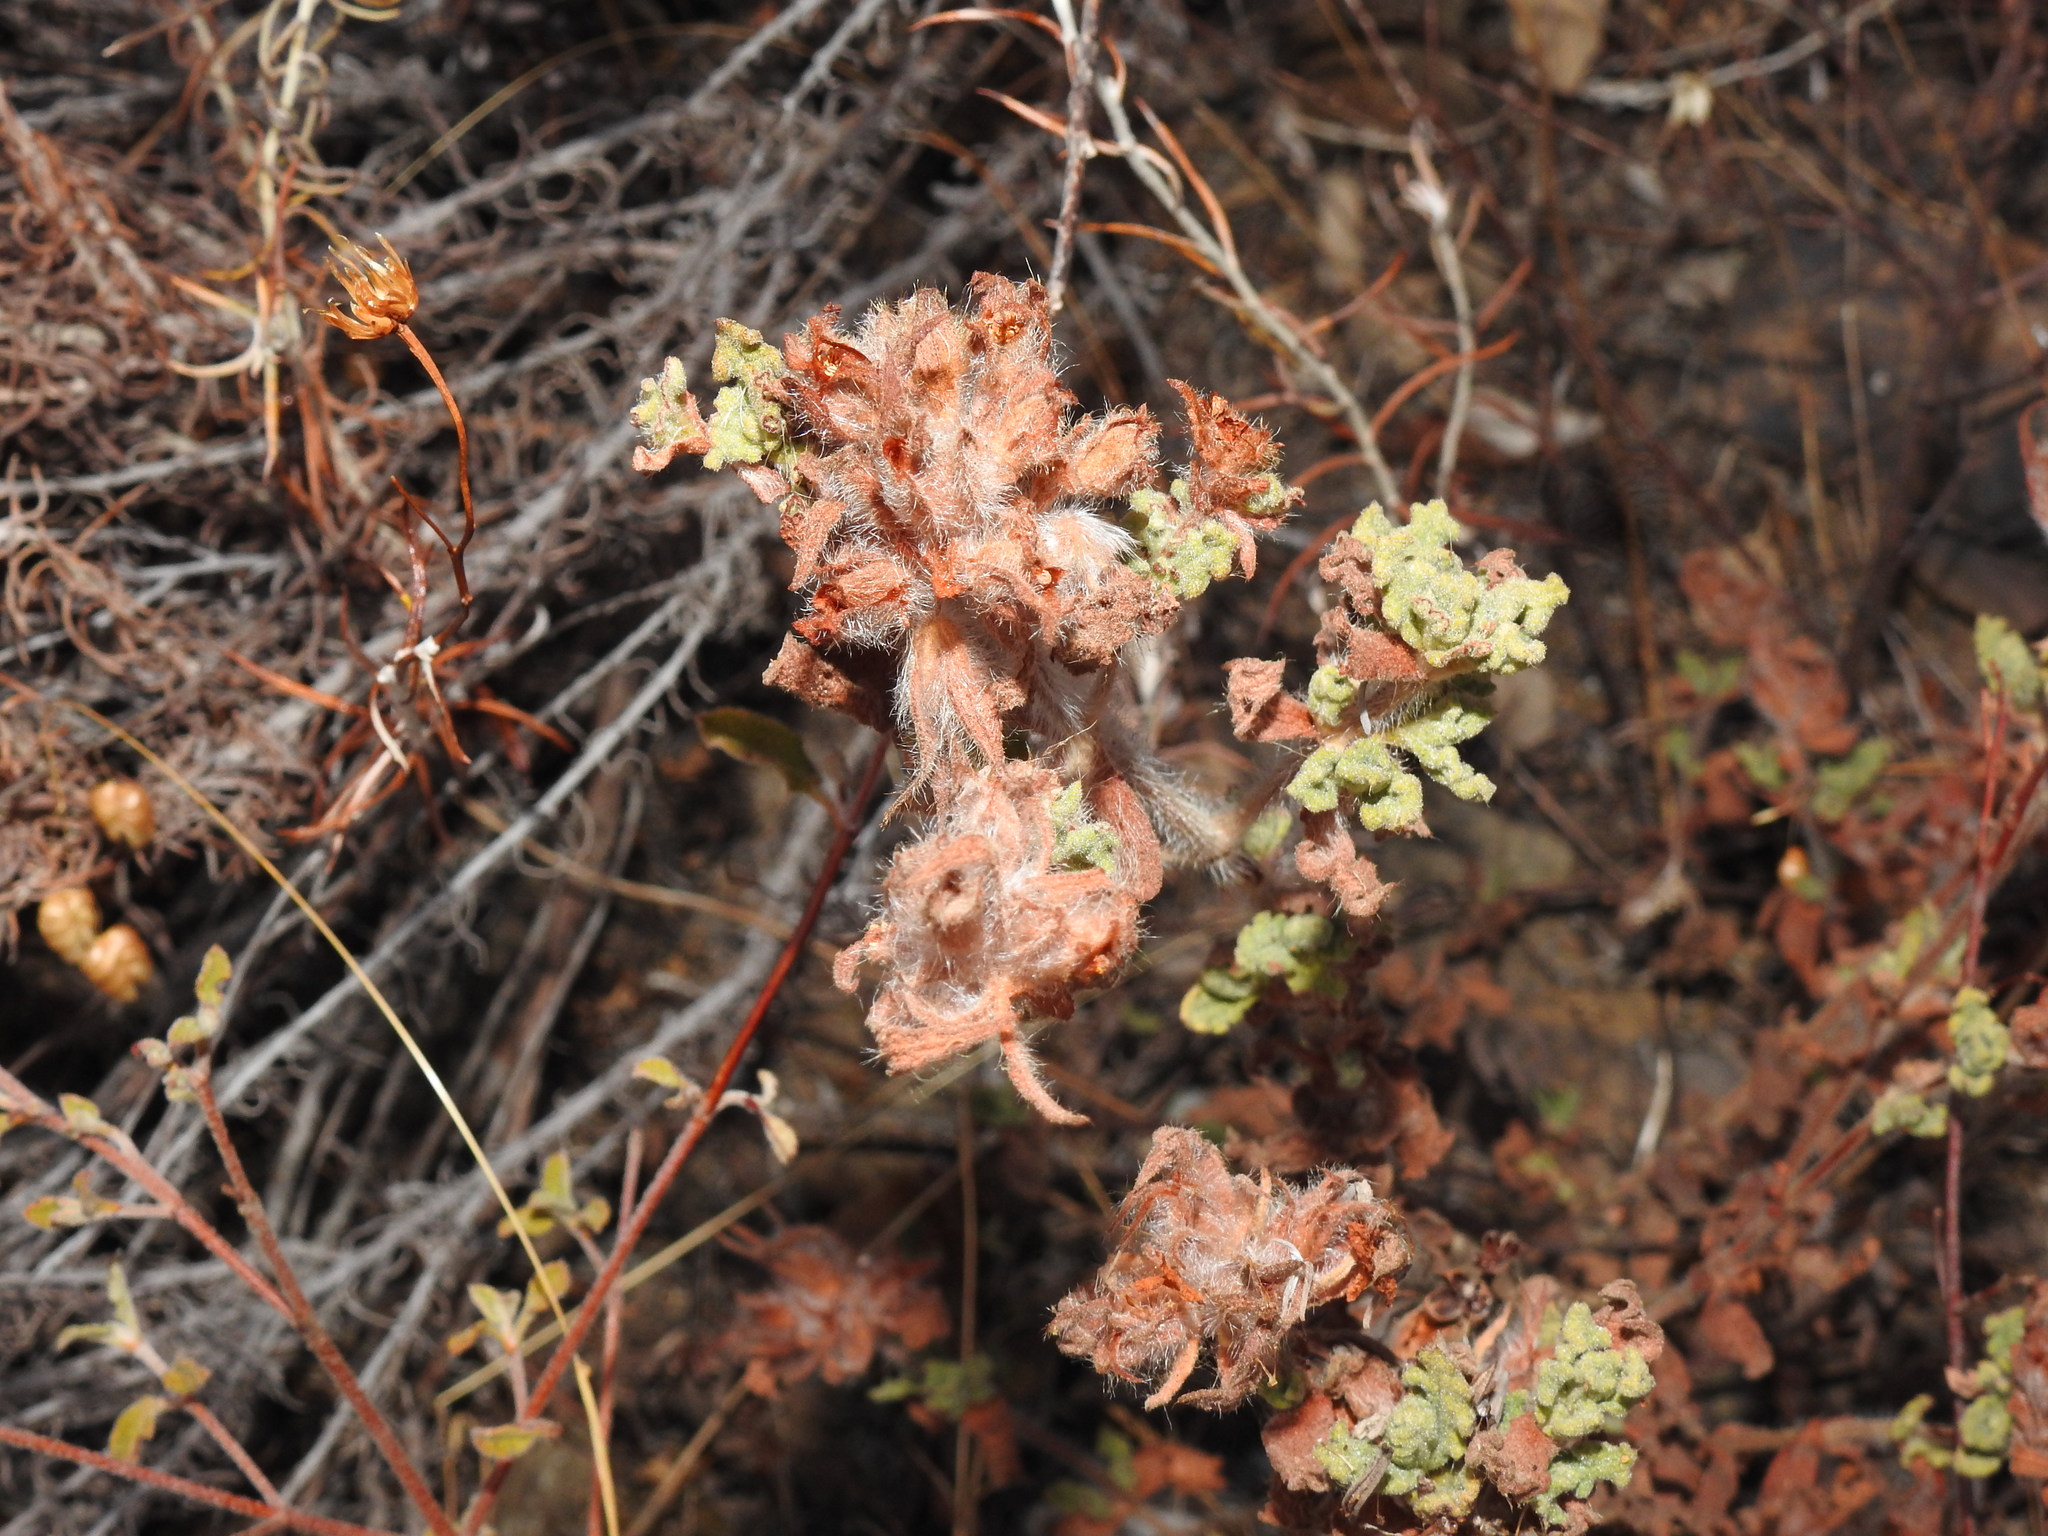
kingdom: Plantae
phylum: Tracheophyta
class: Magnoliopsida
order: Malvales
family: Cistaceae
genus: Cistus
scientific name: Cistus crispus
